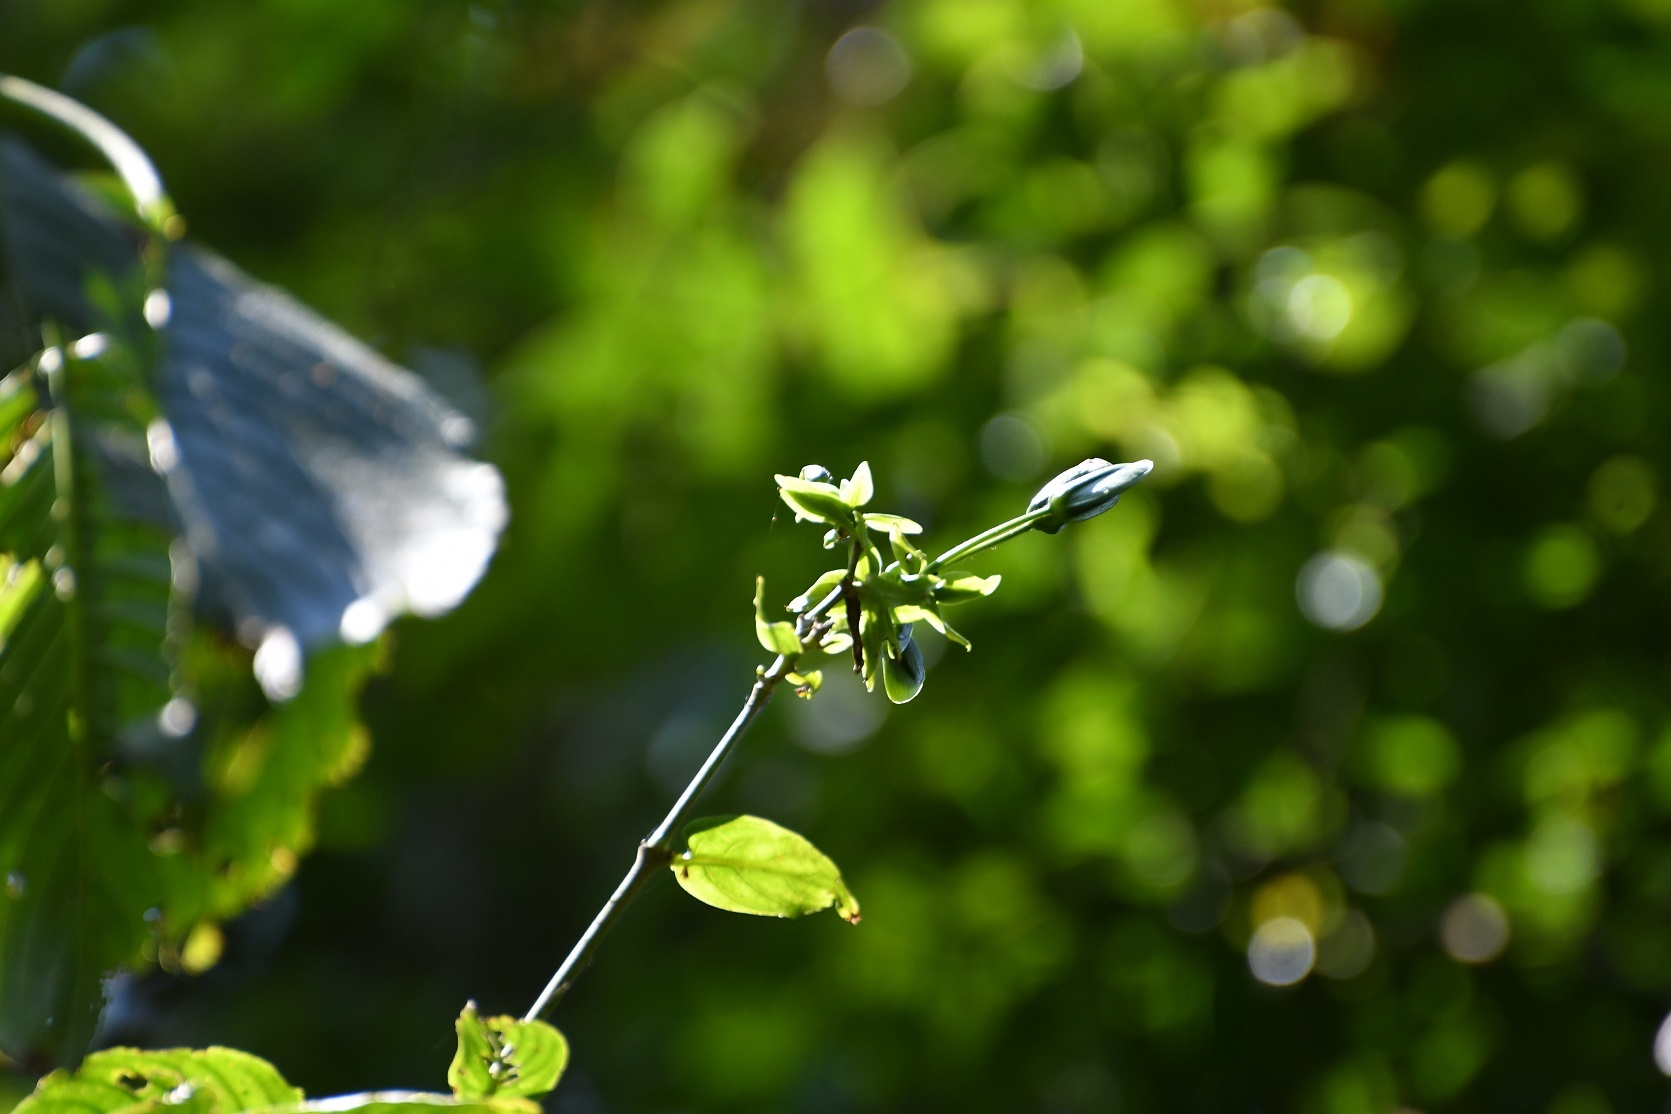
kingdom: Plantae
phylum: Tracheophyta
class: Magnoliopsida
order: Lamiales
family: Acanthaceae
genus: Louteridium
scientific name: Louteridium mexicanum
